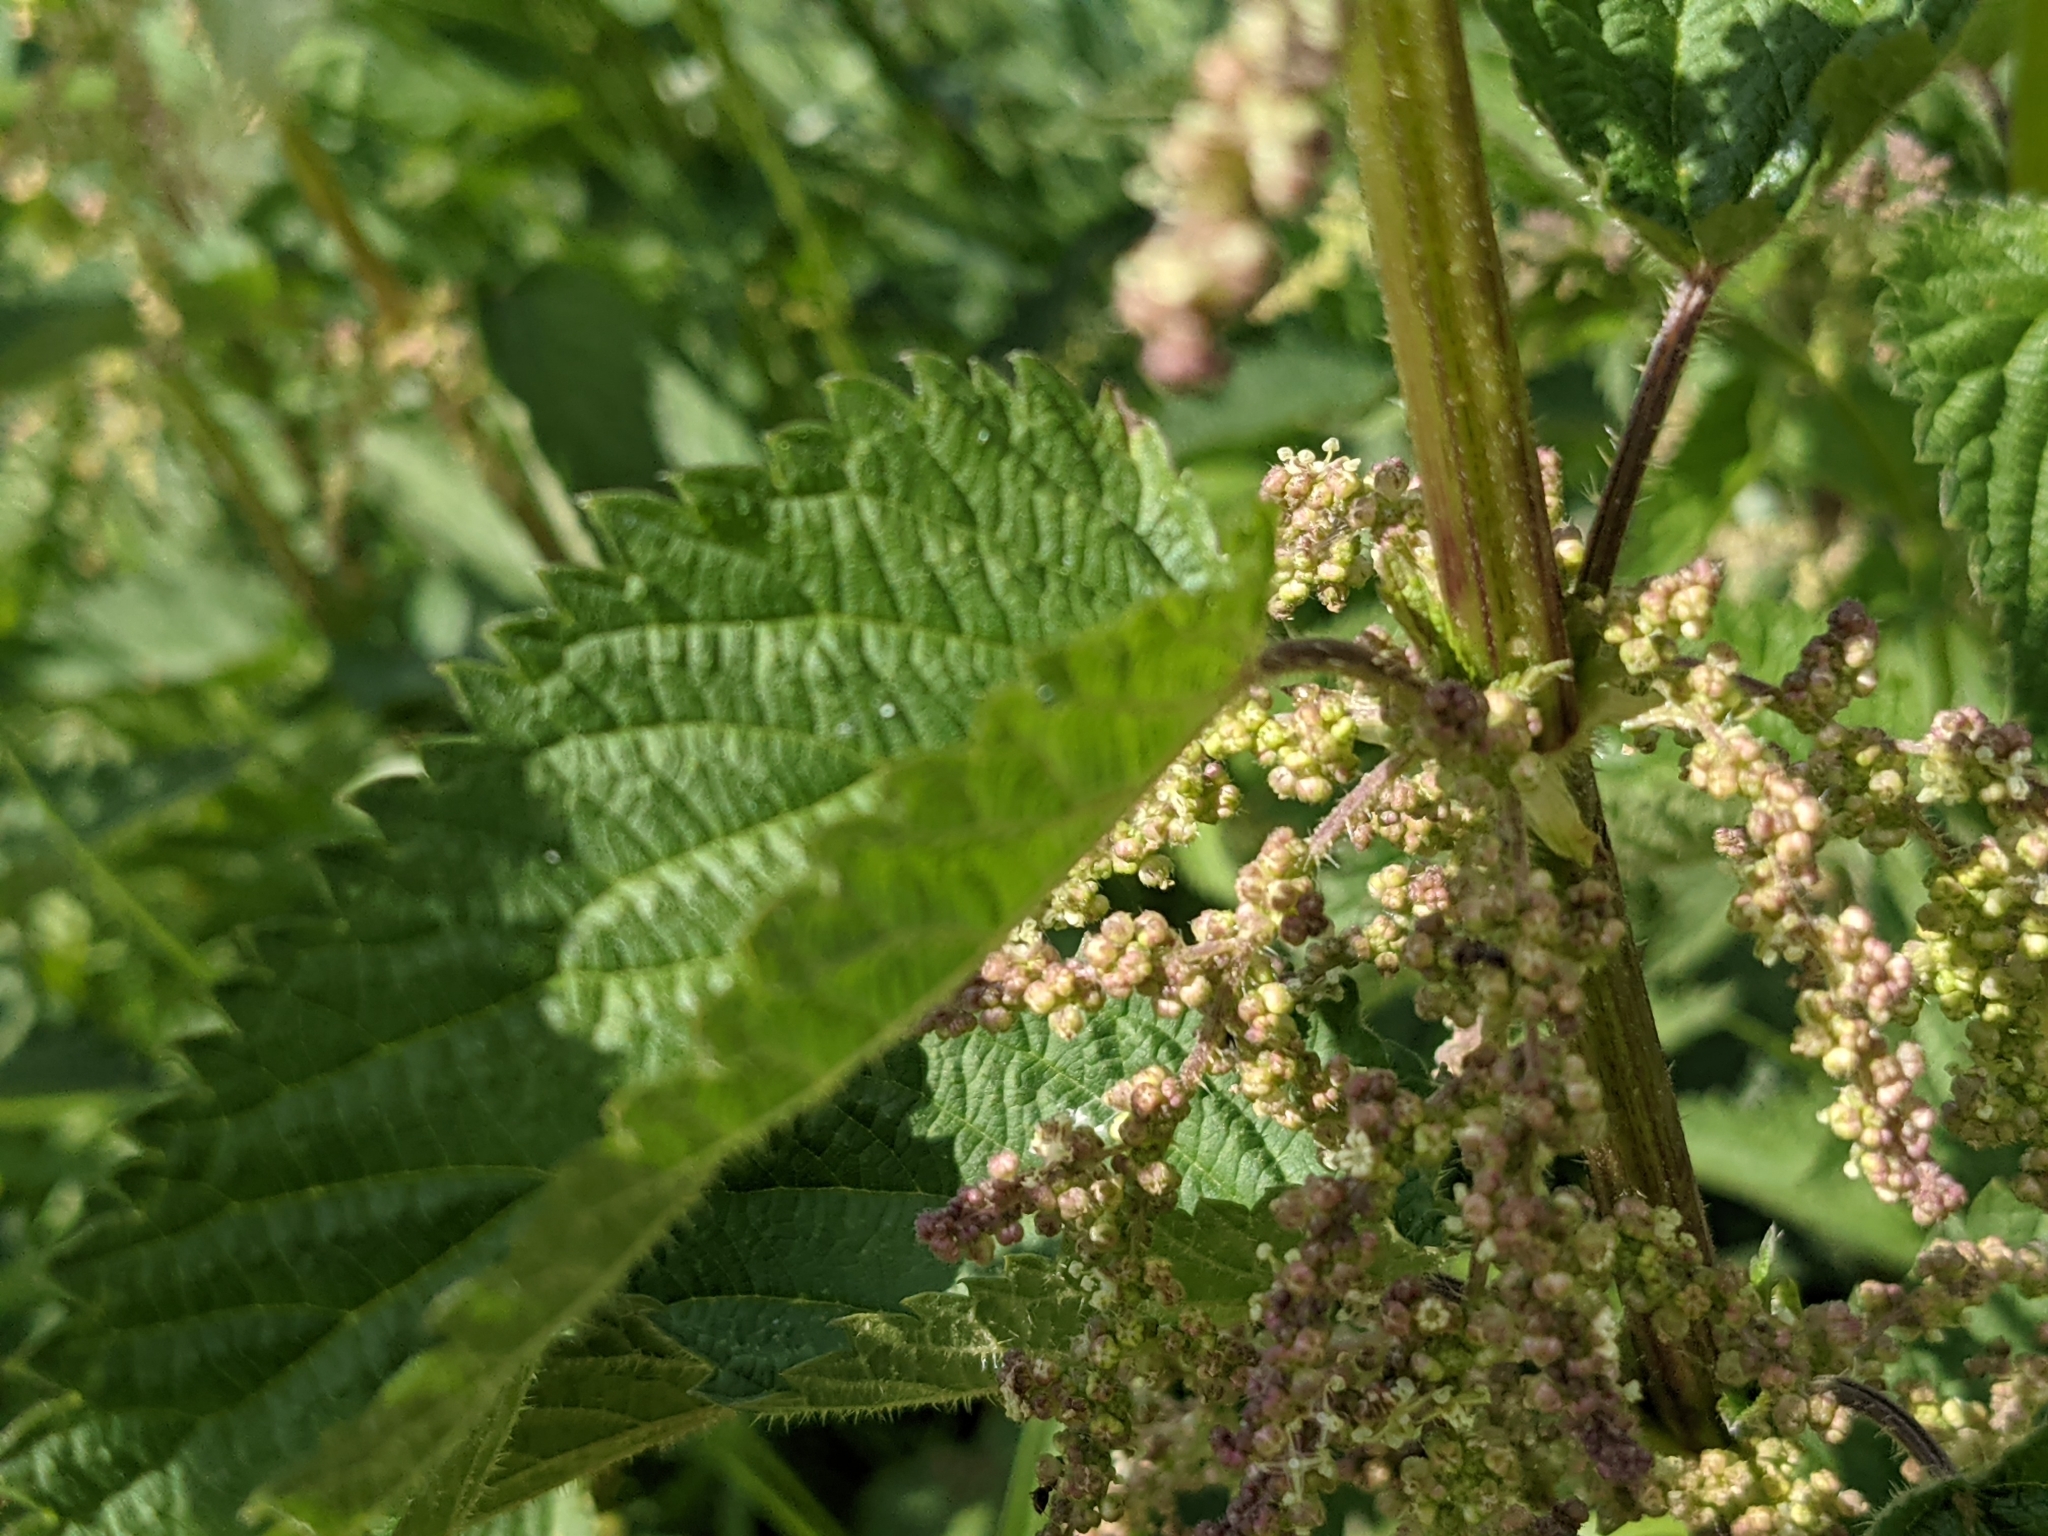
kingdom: Plantae
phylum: Tracheophyta
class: Magnoliopsida
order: Rosales
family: Urticaceae
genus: Urtica
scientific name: Urtica dioica
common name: Common nettle
